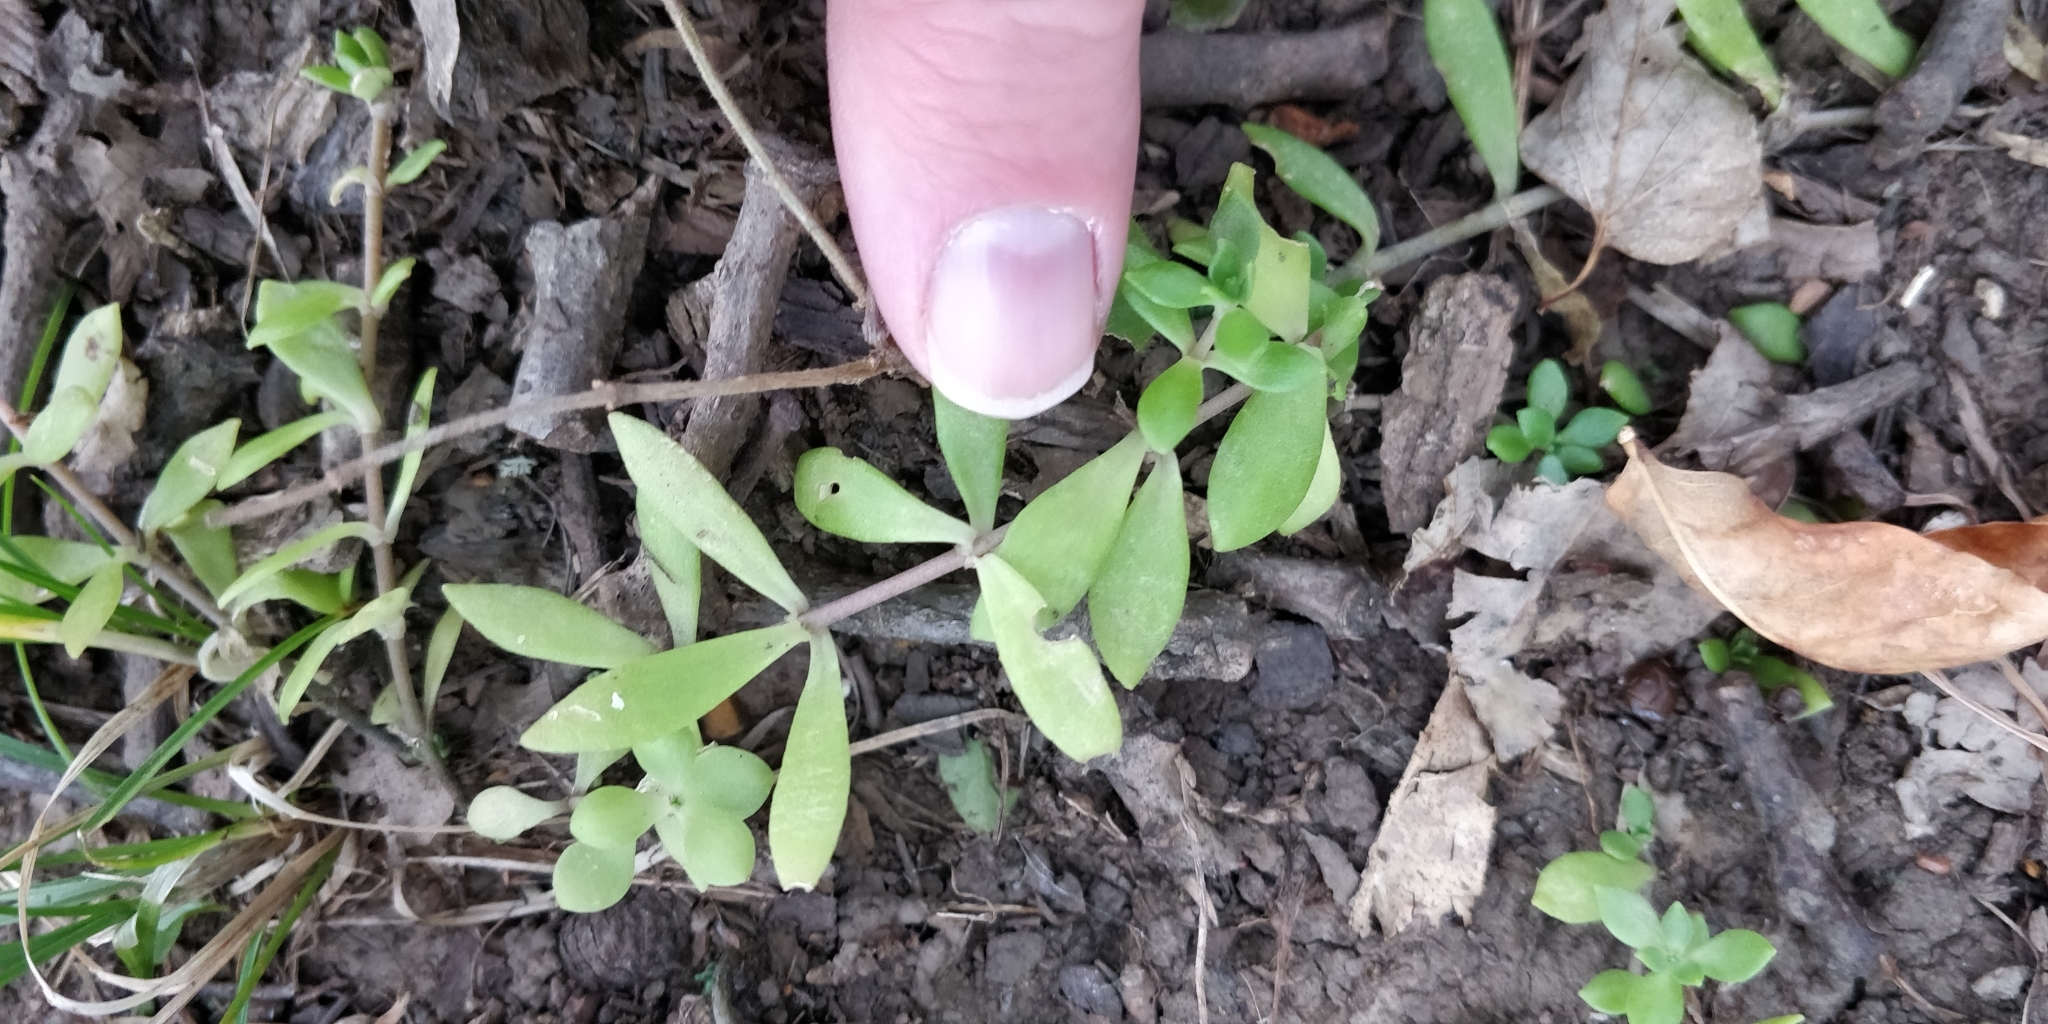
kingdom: Plantae
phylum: Tracheophyta
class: Magnoliopsida
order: Saxifragales
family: Crassulaceae
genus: Sedum
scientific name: Sedum sarmentosum
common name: Stringy stonecrop
